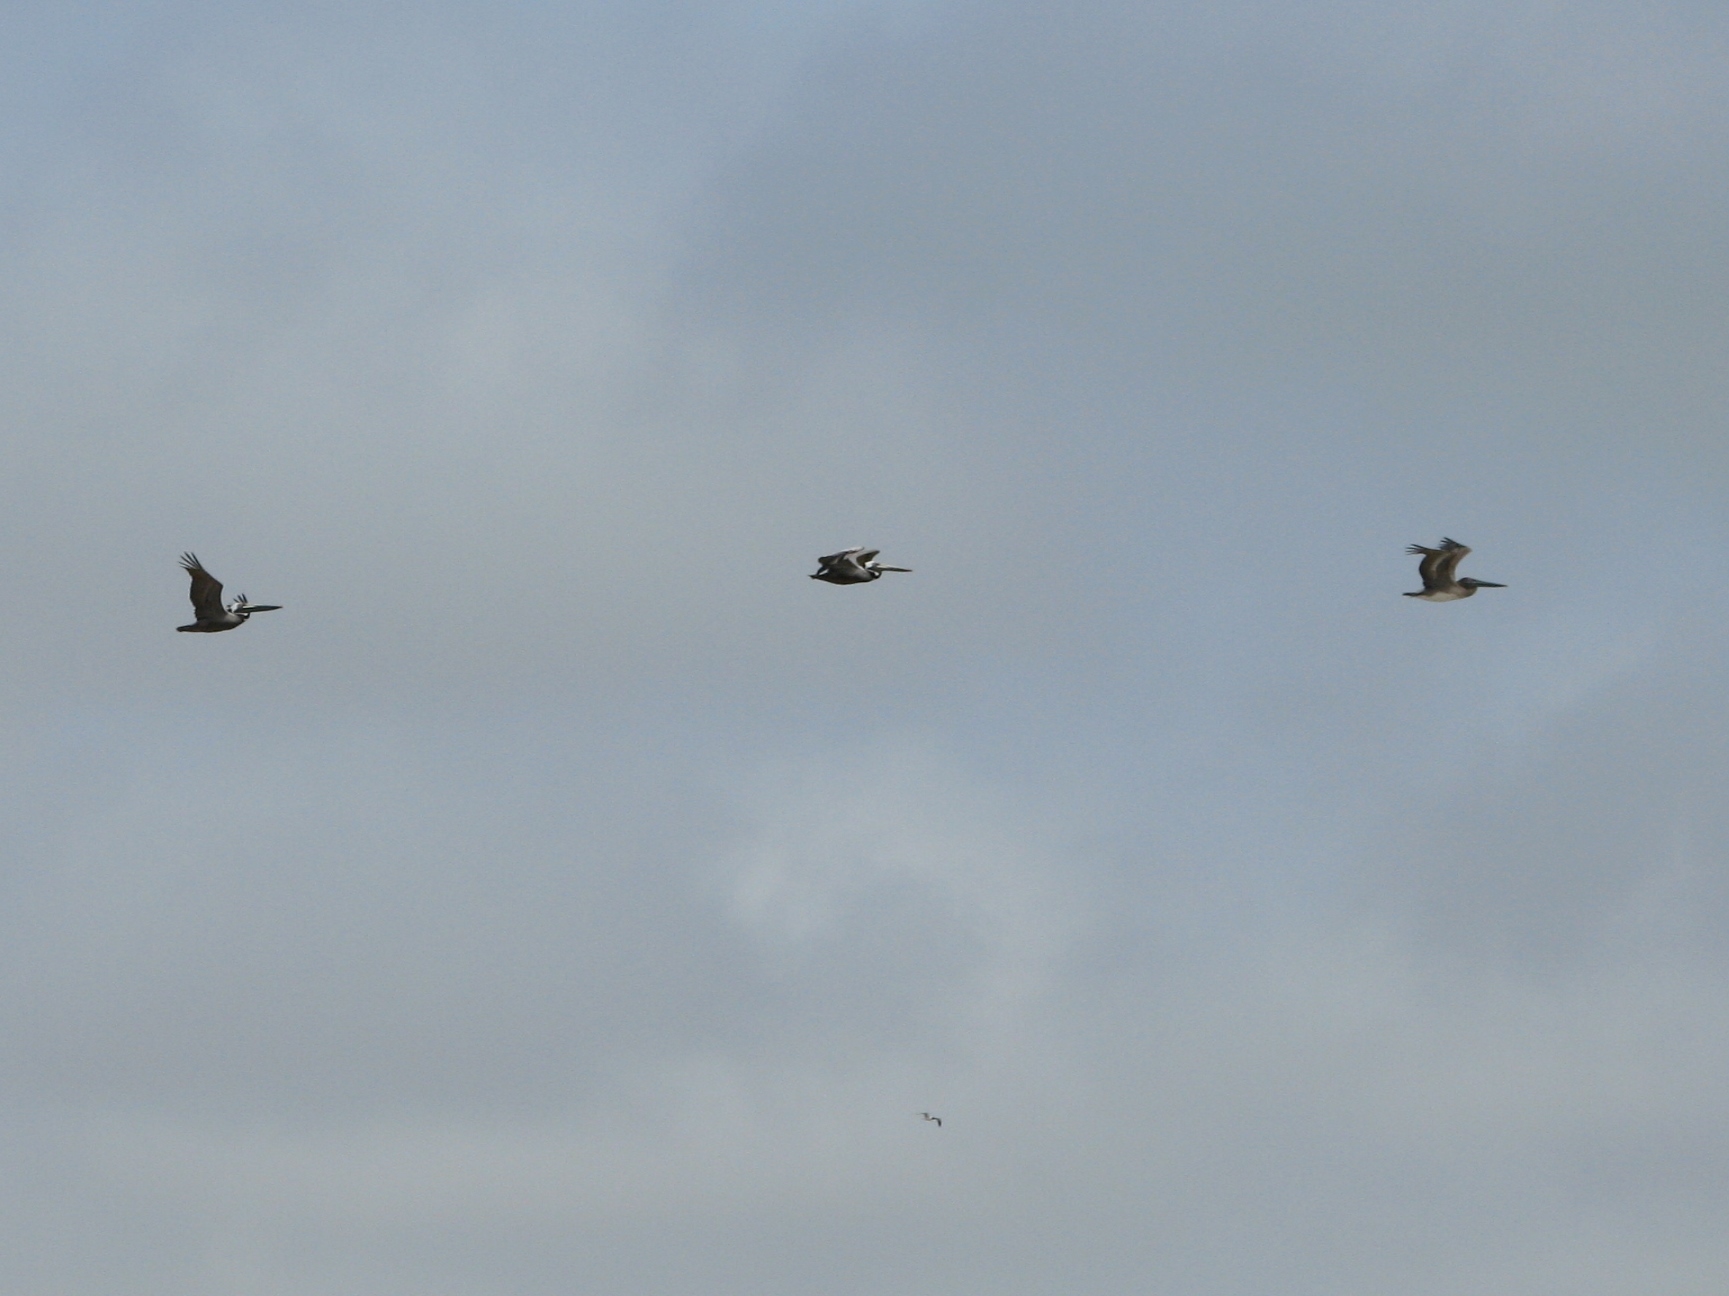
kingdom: Animalia
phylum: Chordata
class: Aves
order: Pelecaniformes
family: Pelecanidae
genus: Pelecanus
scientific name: Pelecanus occidentalis
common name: Brown pelican
